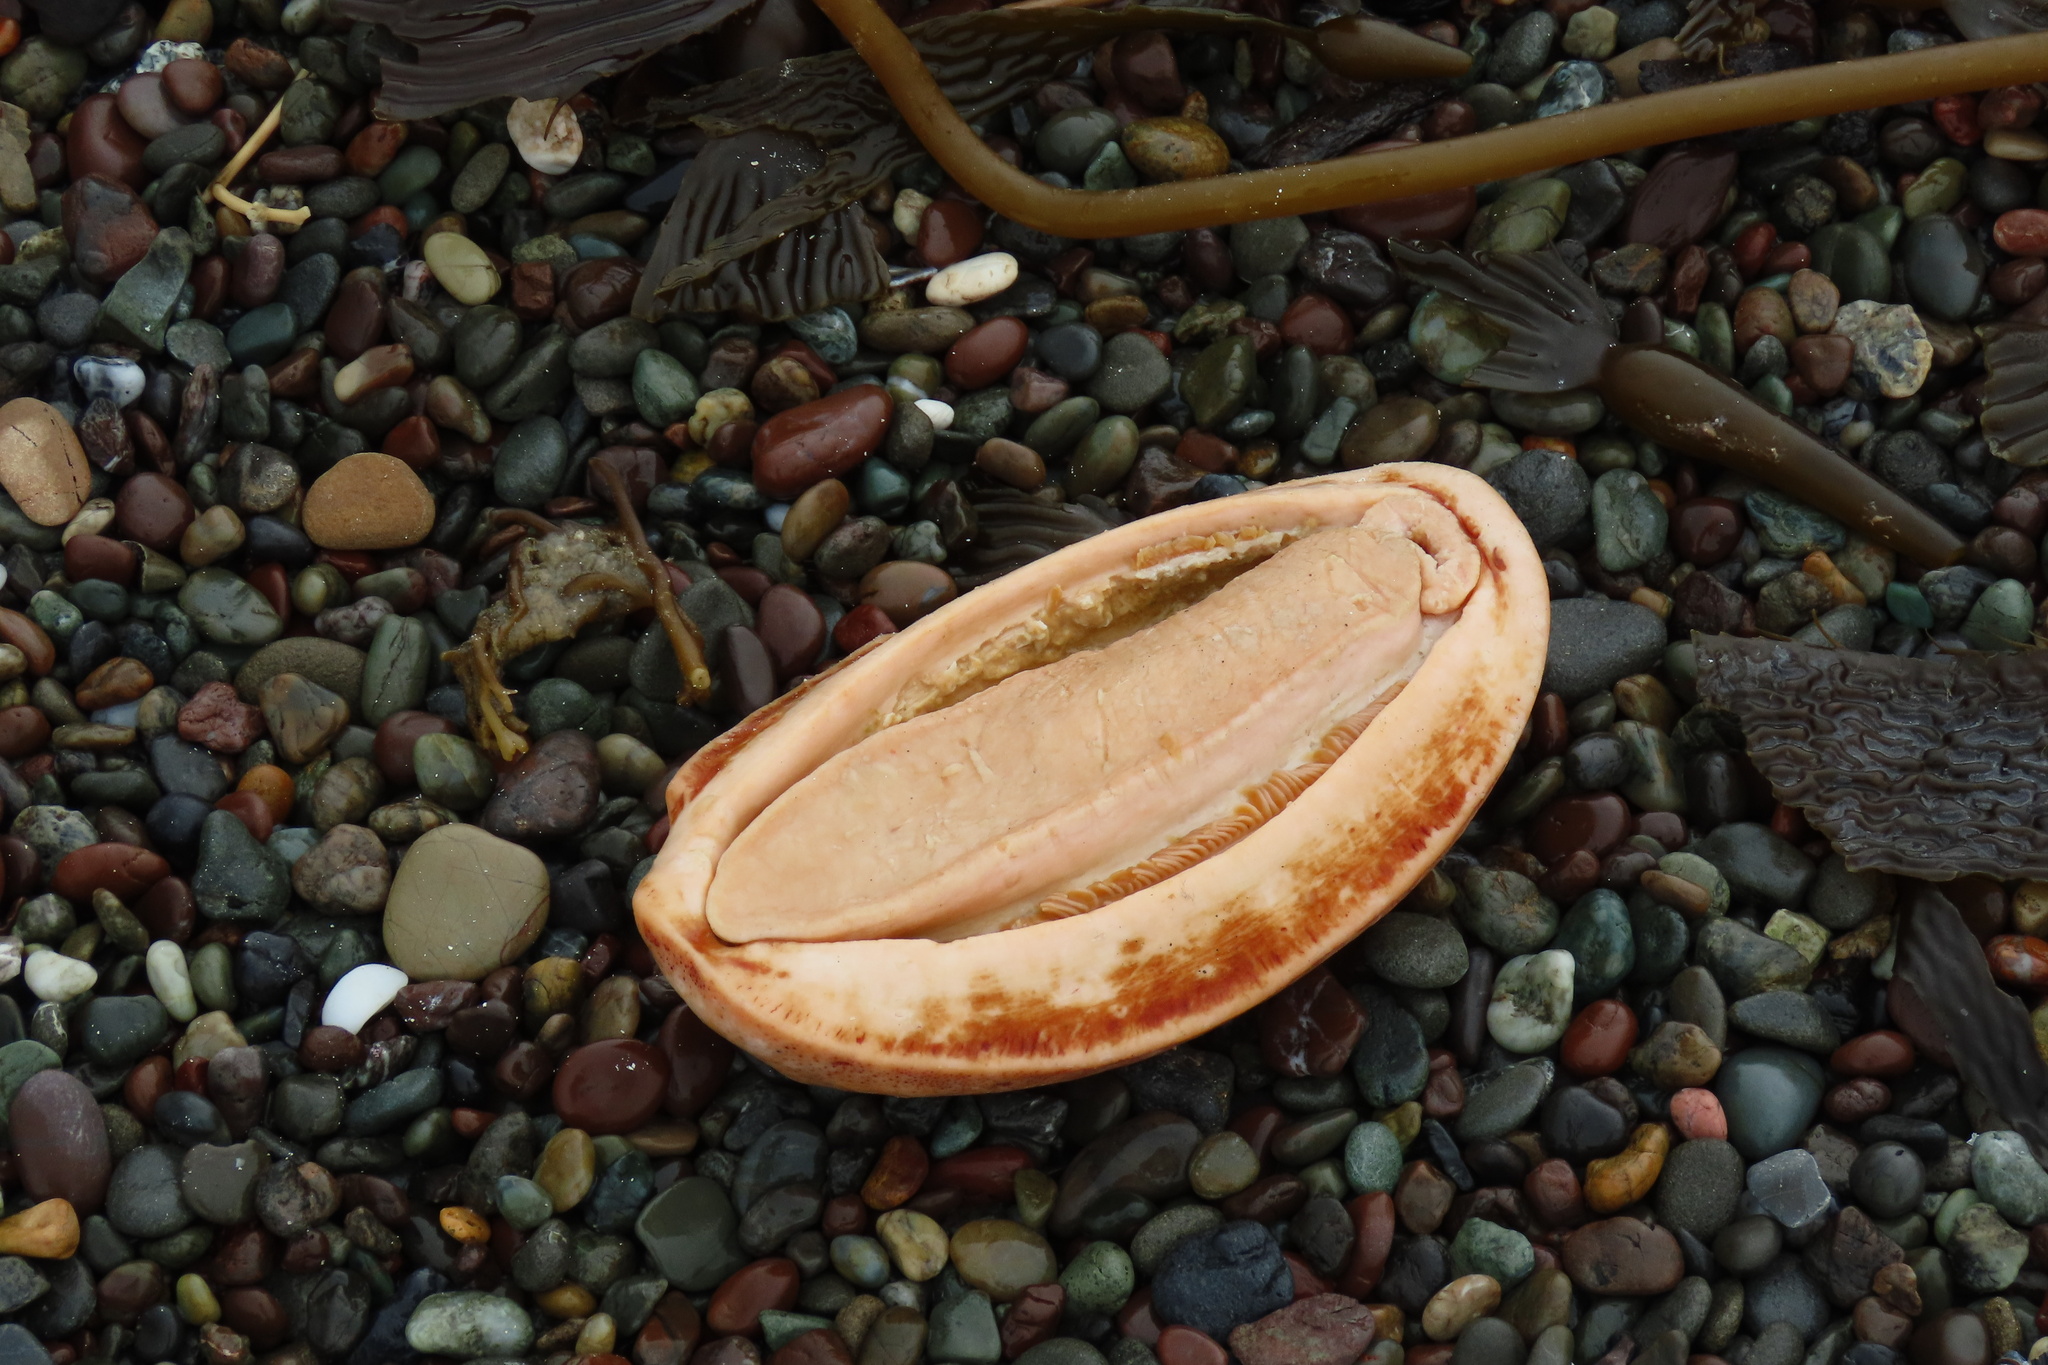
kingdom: Animalia
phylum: Mollusca
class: Polyplacophora
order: Chitonida
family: Acanthochitonidae
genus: Cryptochiton
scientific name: Cryptochiton stelleri
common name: Giant pacific chiton
